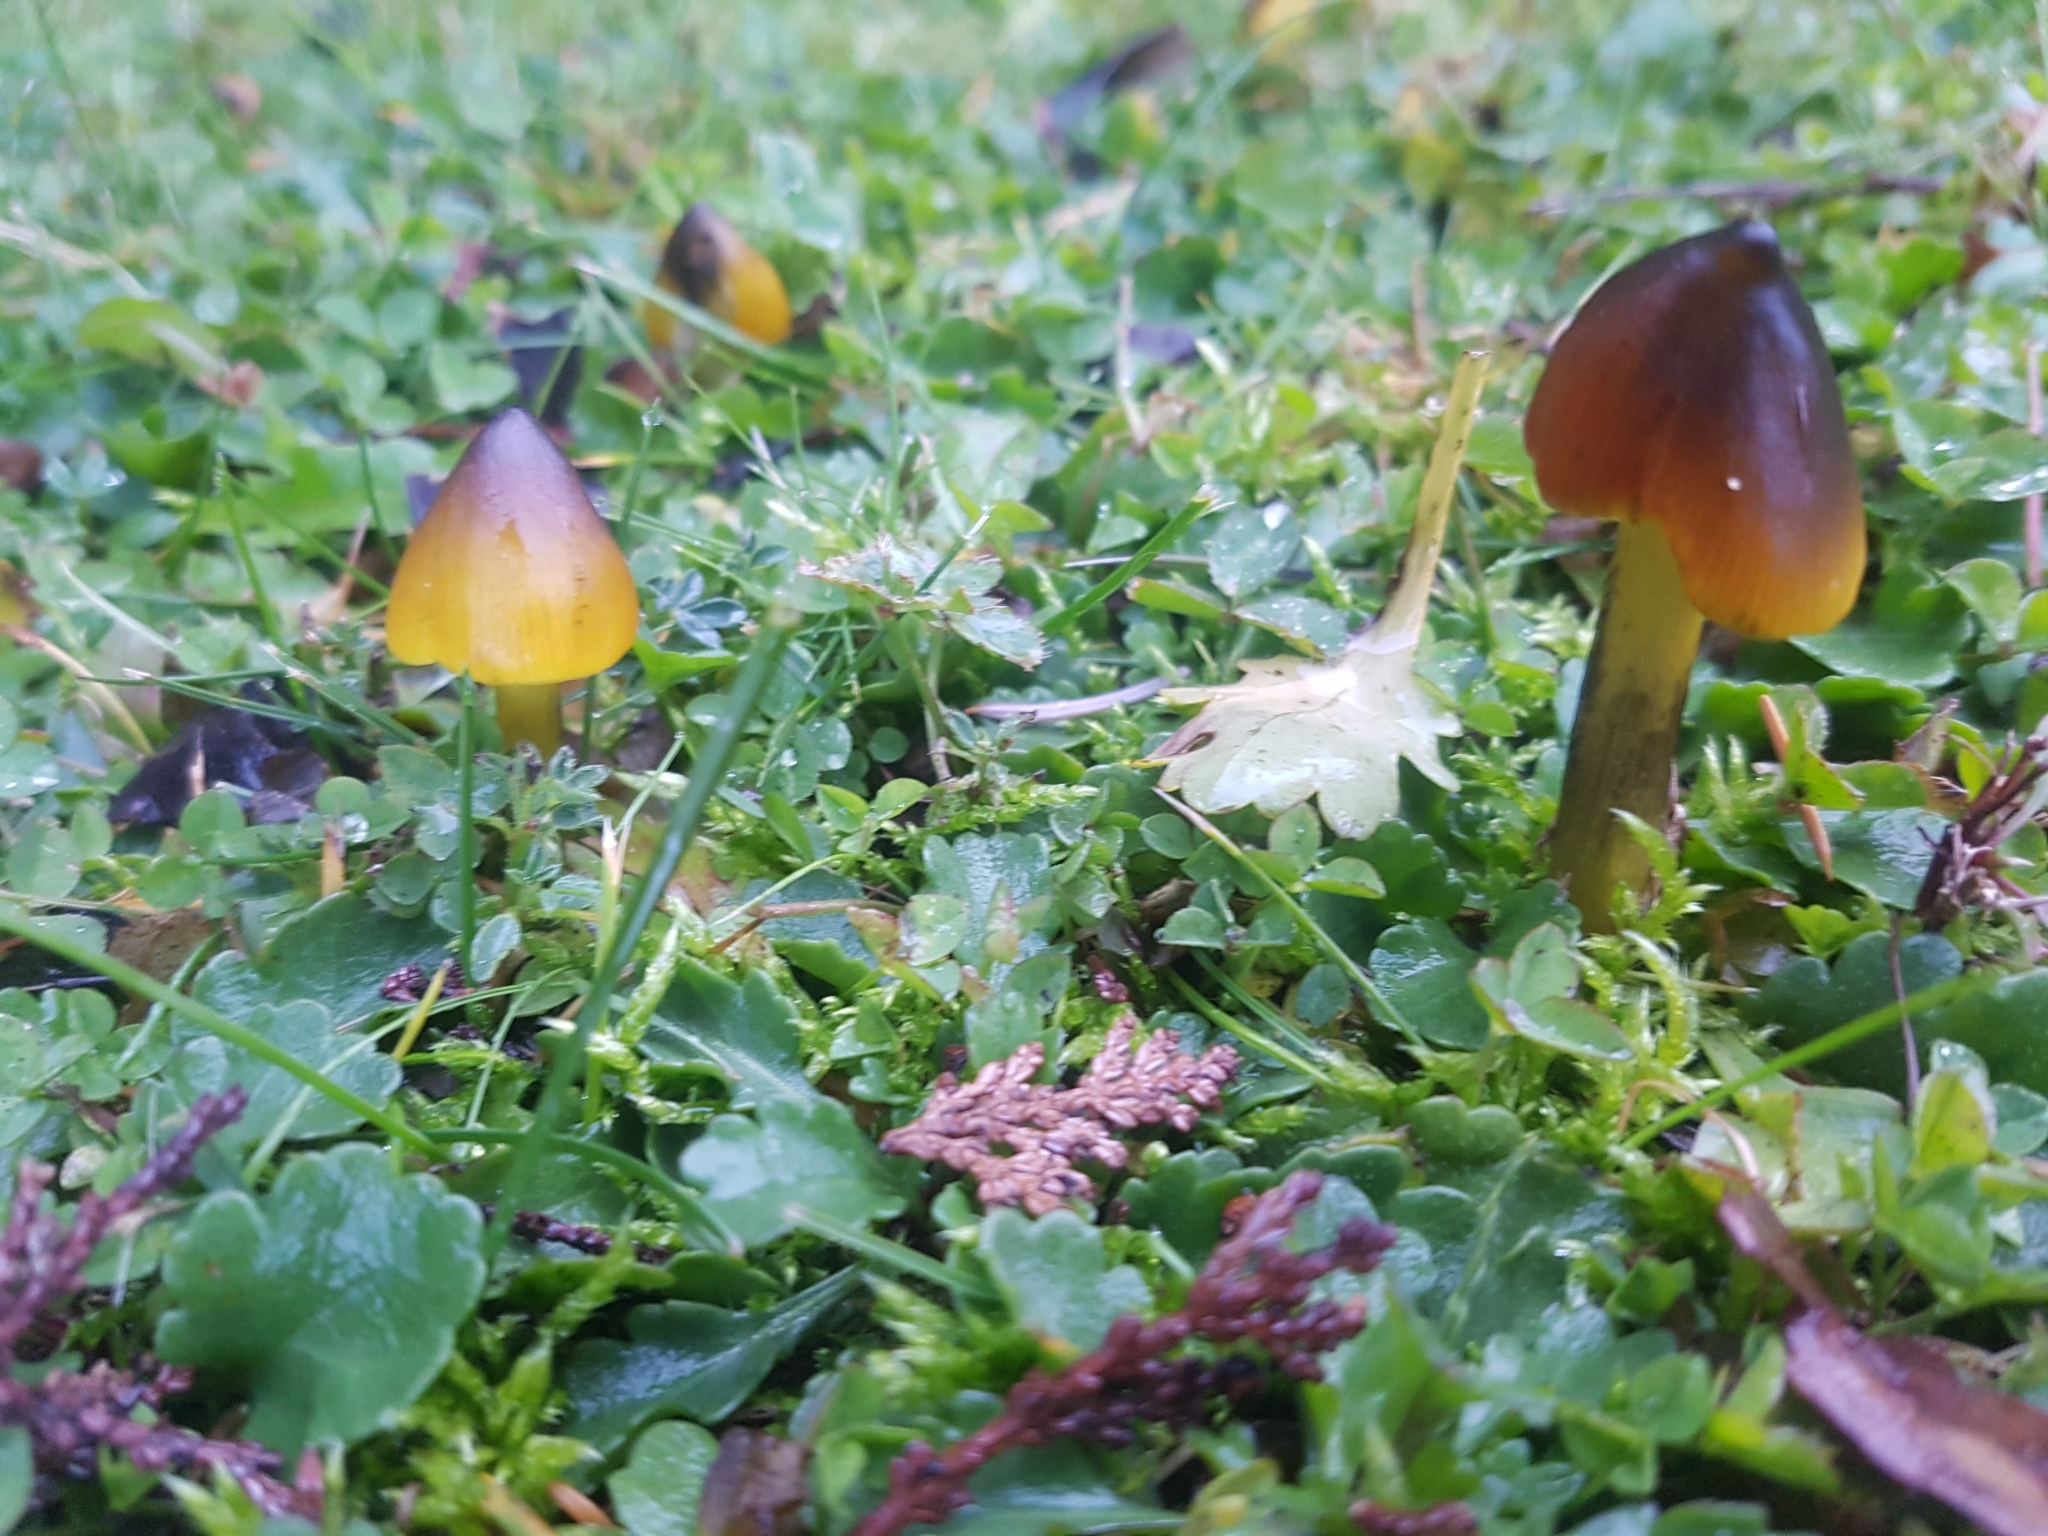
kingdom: Fungi
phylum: Basidiomycota
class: Agaricomycetes
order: Agaricales
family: Hygrophoraceae
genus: Hygrocybe
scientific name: Hygrocybe conica
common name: Blackening wax-cap
